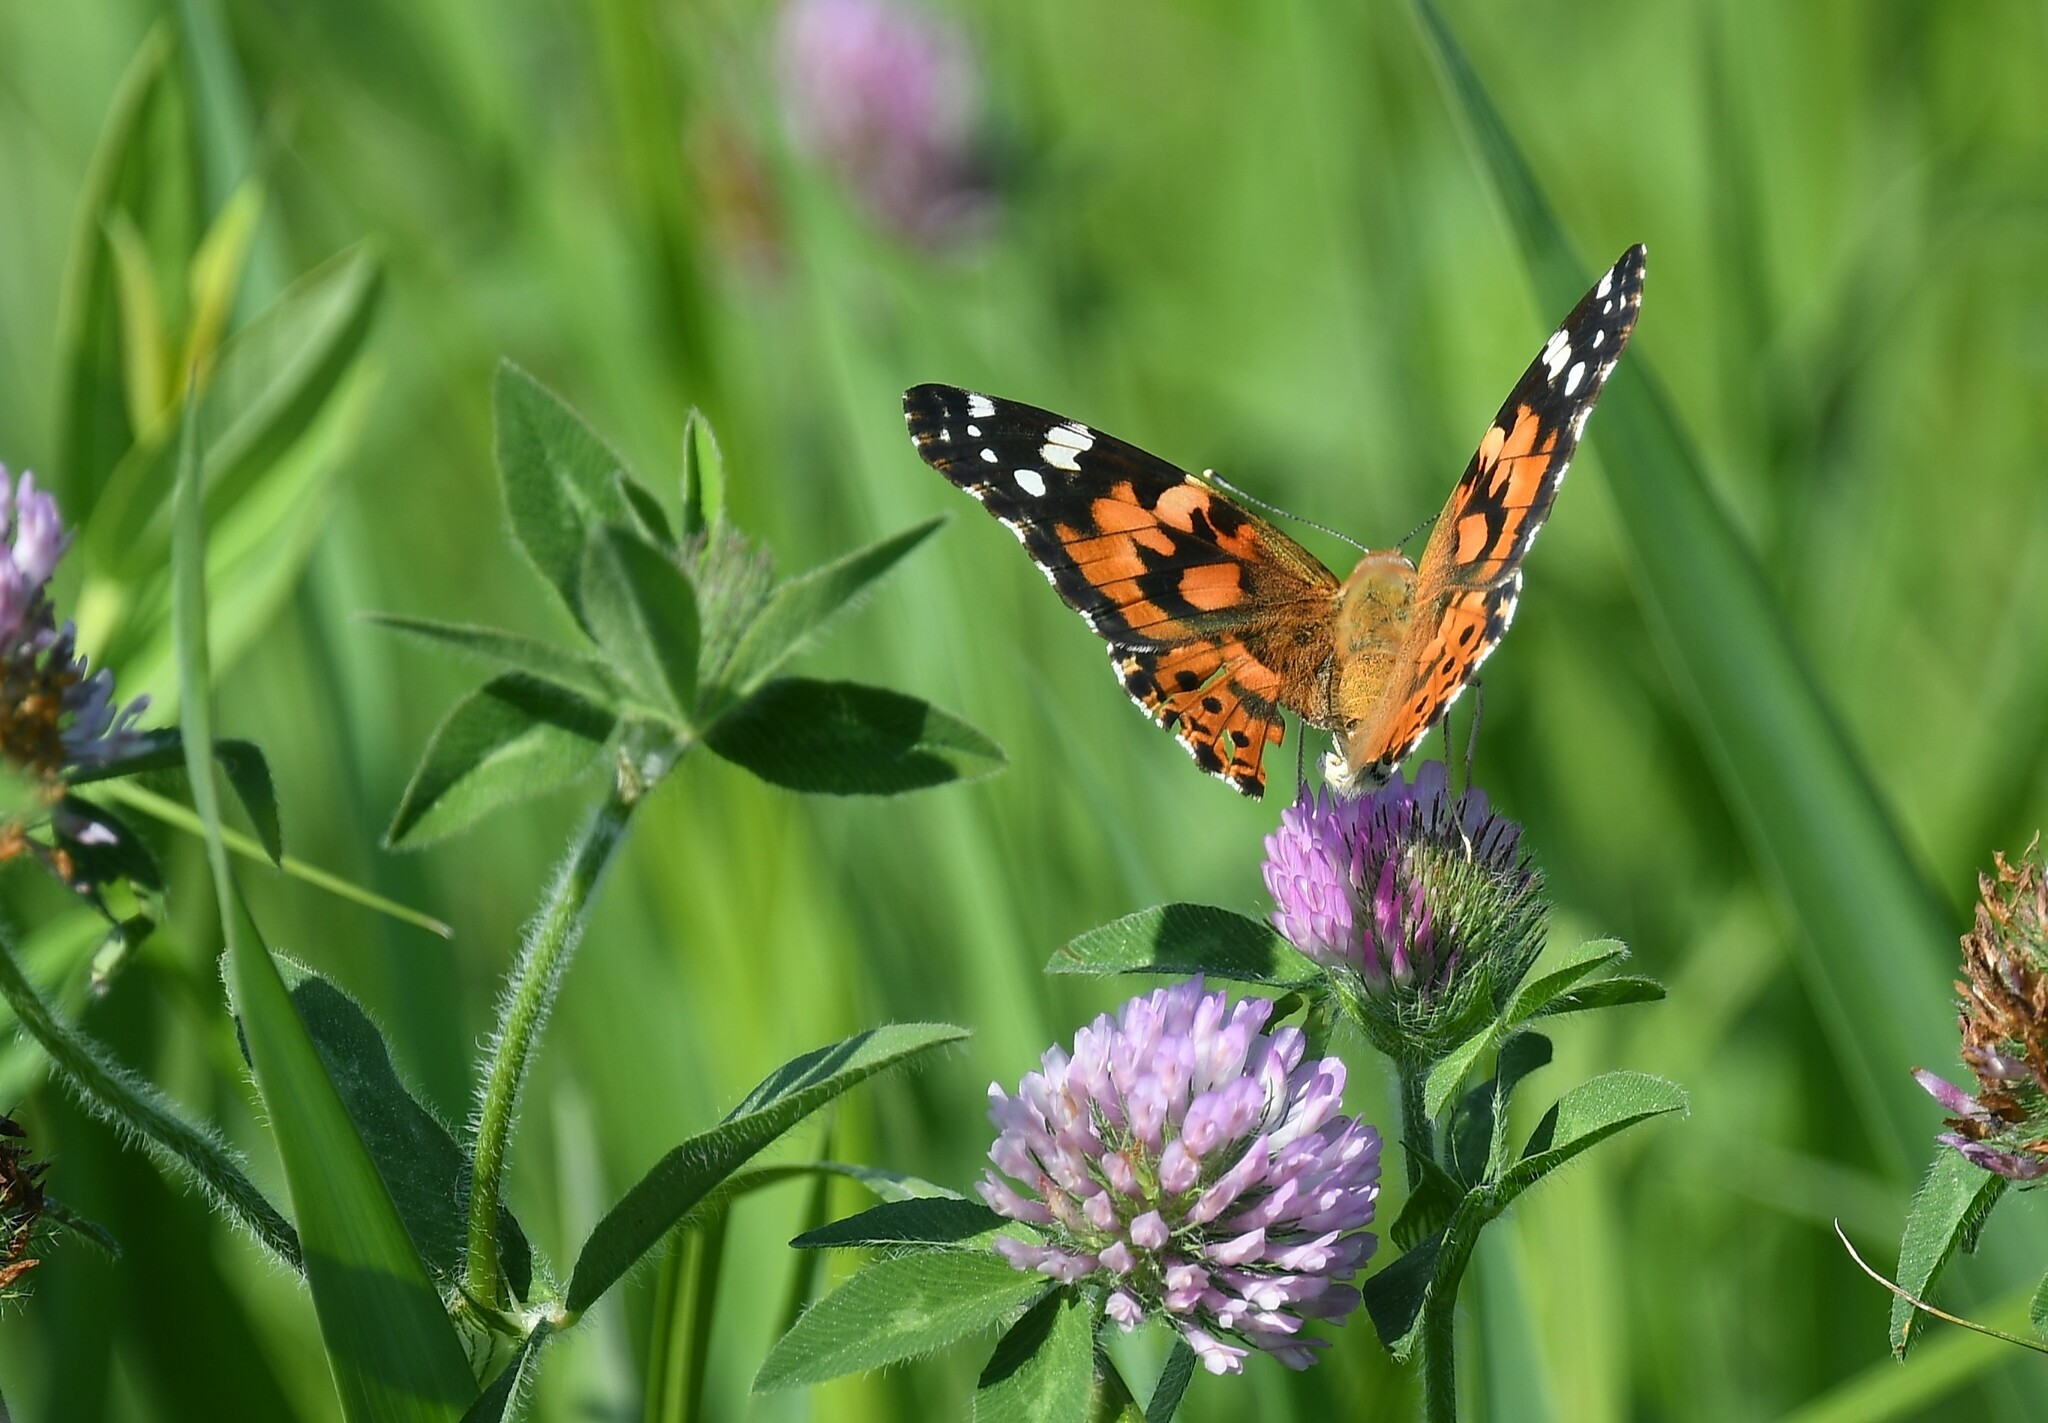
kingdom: Animalia
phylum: Arthropoda
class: Insecta
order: Lepidoptera
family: Nymphalidae
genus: Vanessa
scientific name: Vanessa cardui
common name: Painted lady
